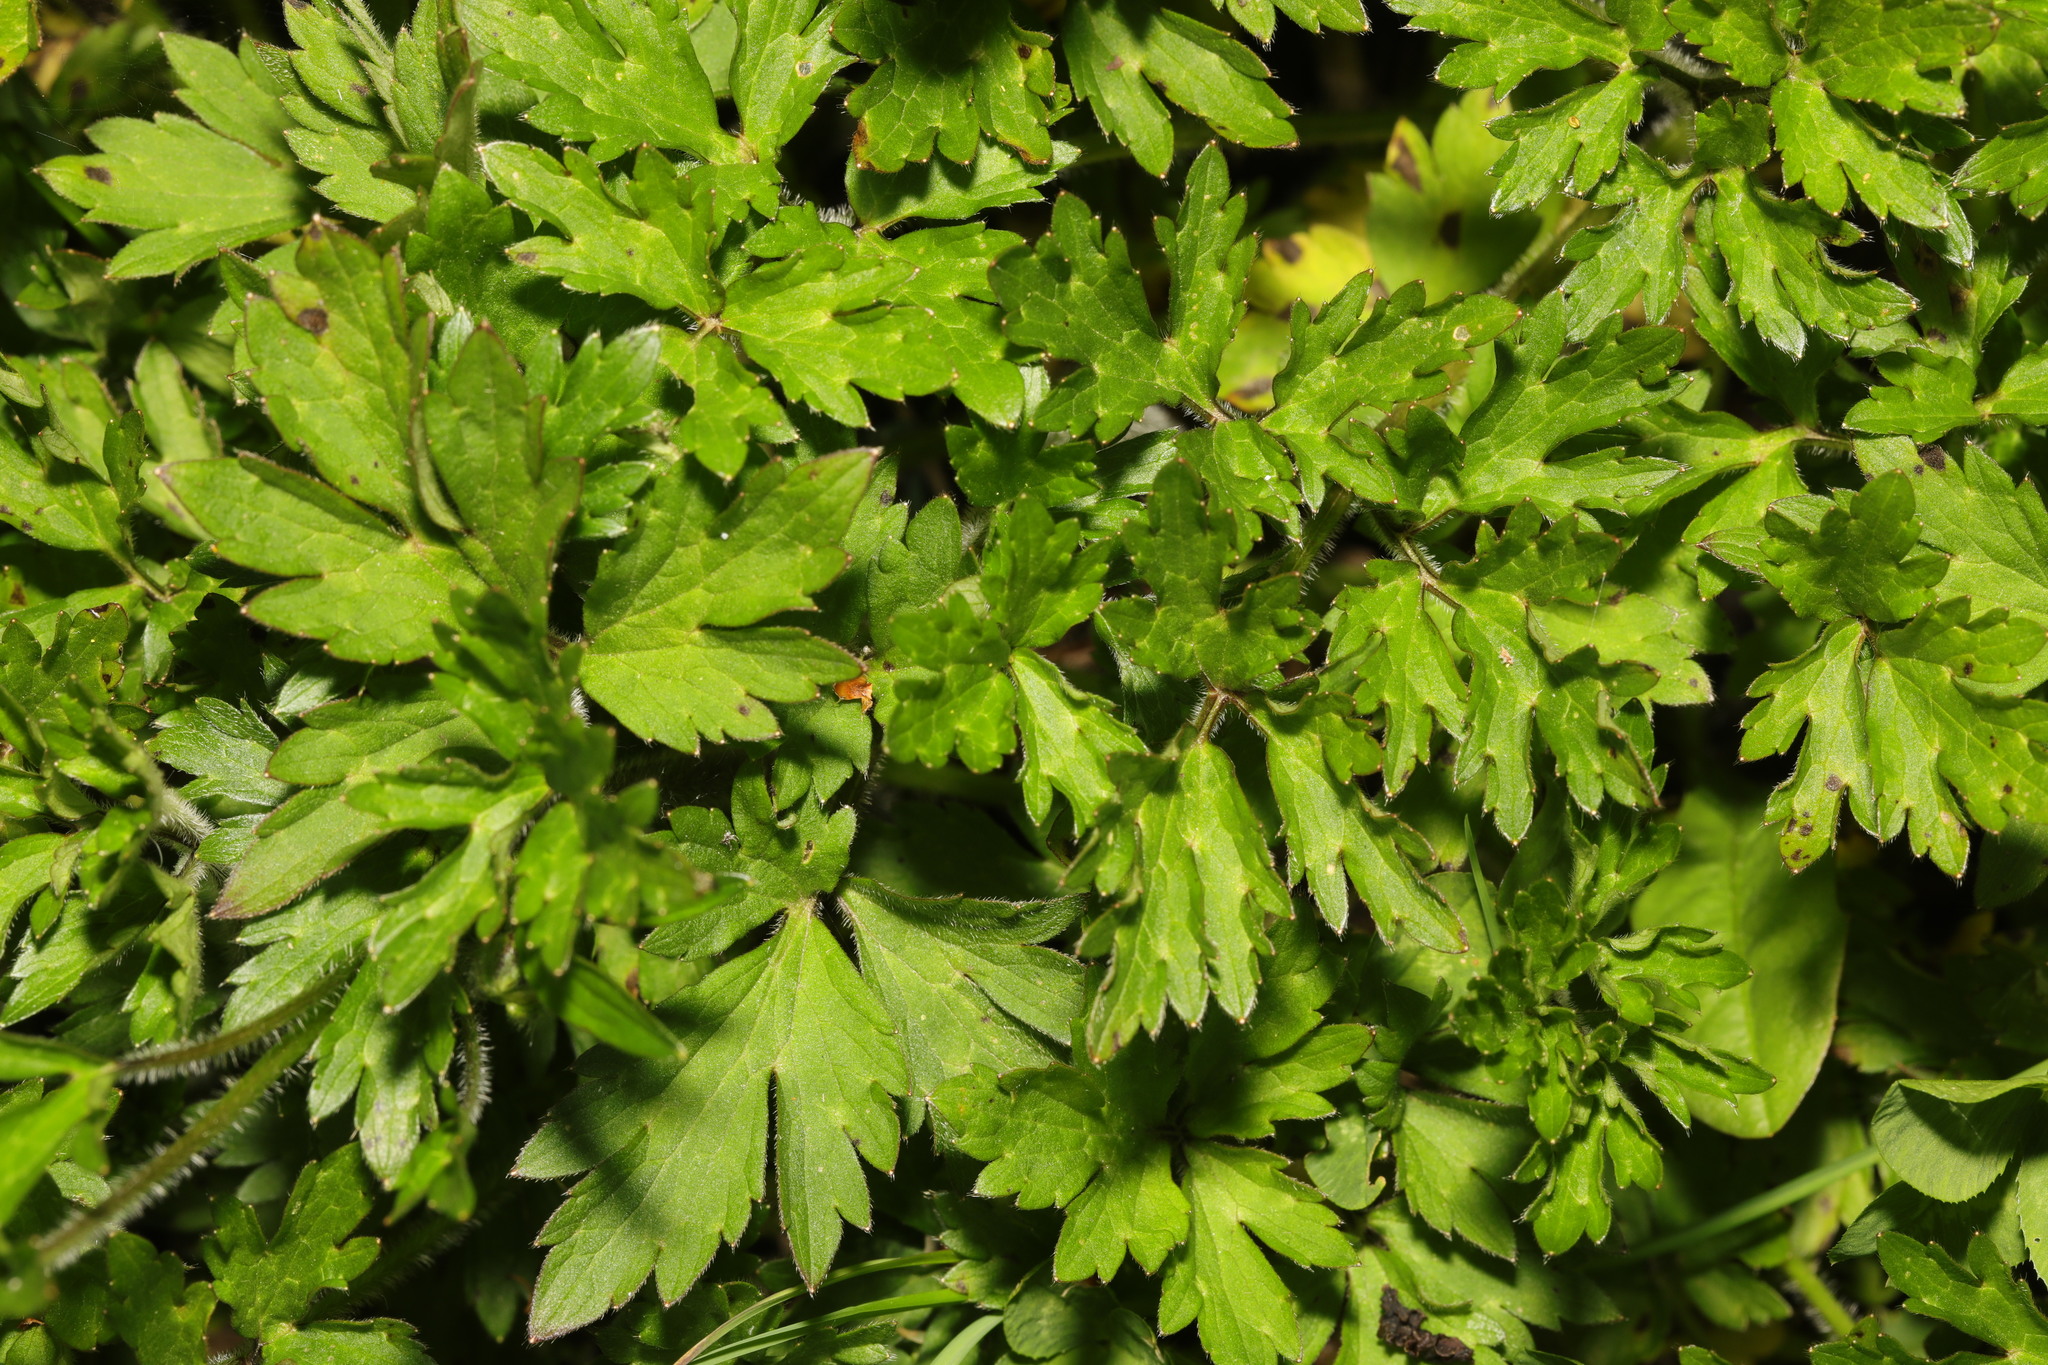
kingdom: Plantae
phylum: Tracheophyta
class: Magnoliopsida
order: Ranunculales
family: Ranunculaceae
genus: Ranunculus
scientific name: Ranunculus repens
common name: Creeping buttercup
